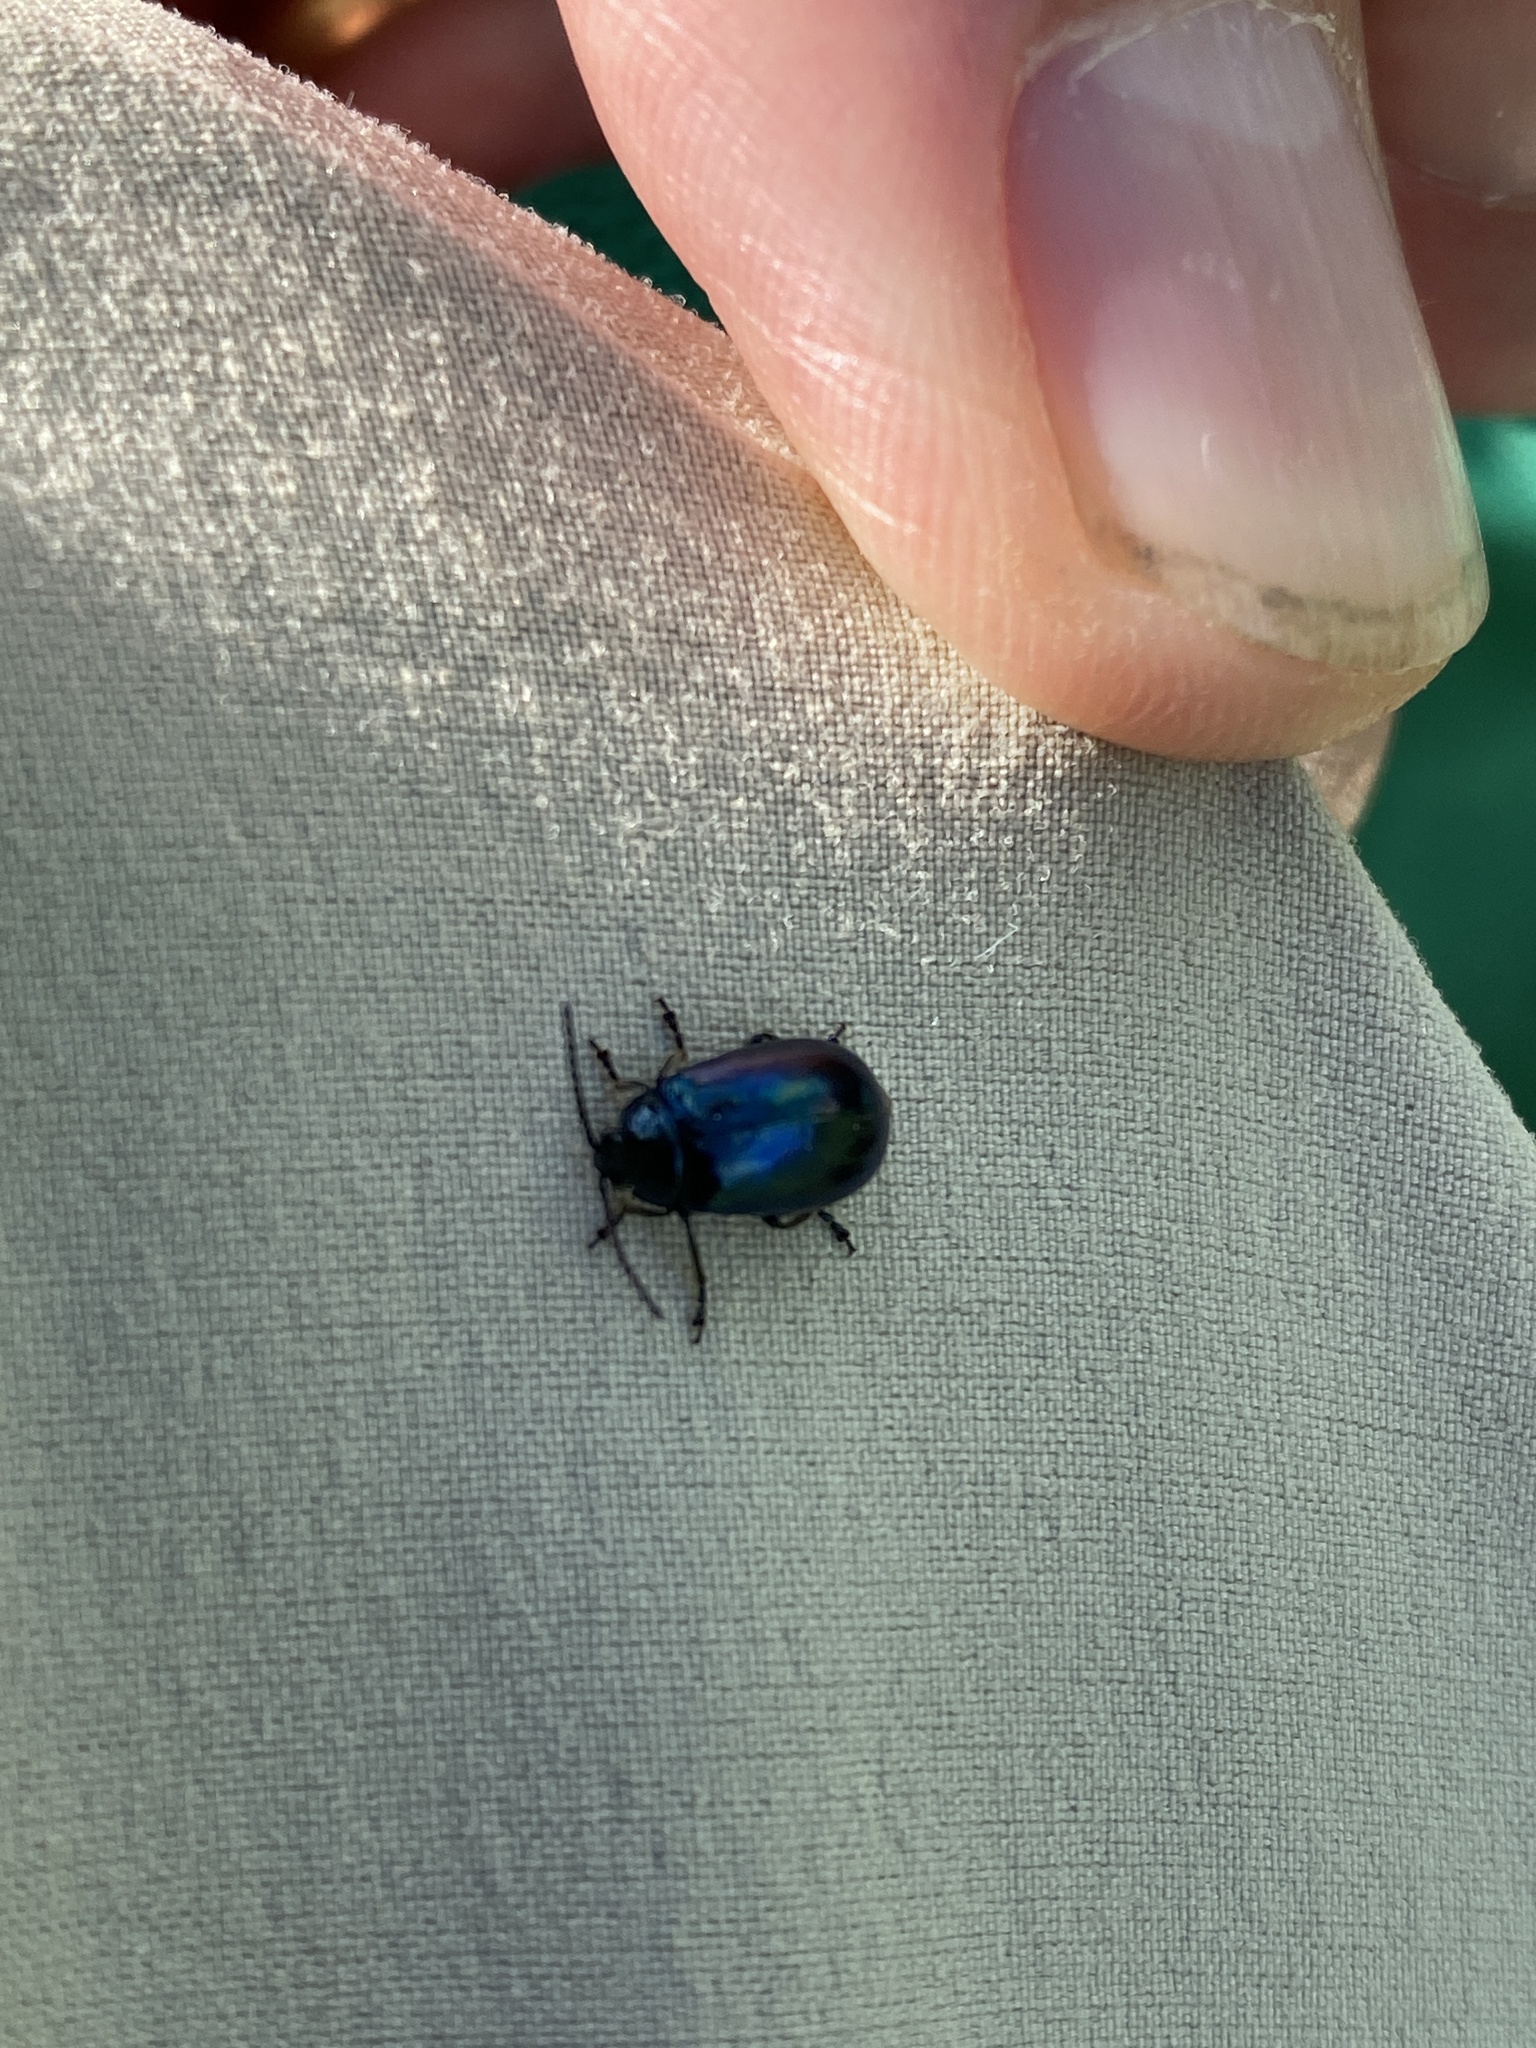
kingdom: Animalia
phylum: Arthropoda
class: Insecta
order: Coleoptera
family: Chrysomelidae
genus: Agelastica
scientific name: Agelastica alni
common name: Alder leaf beetle
